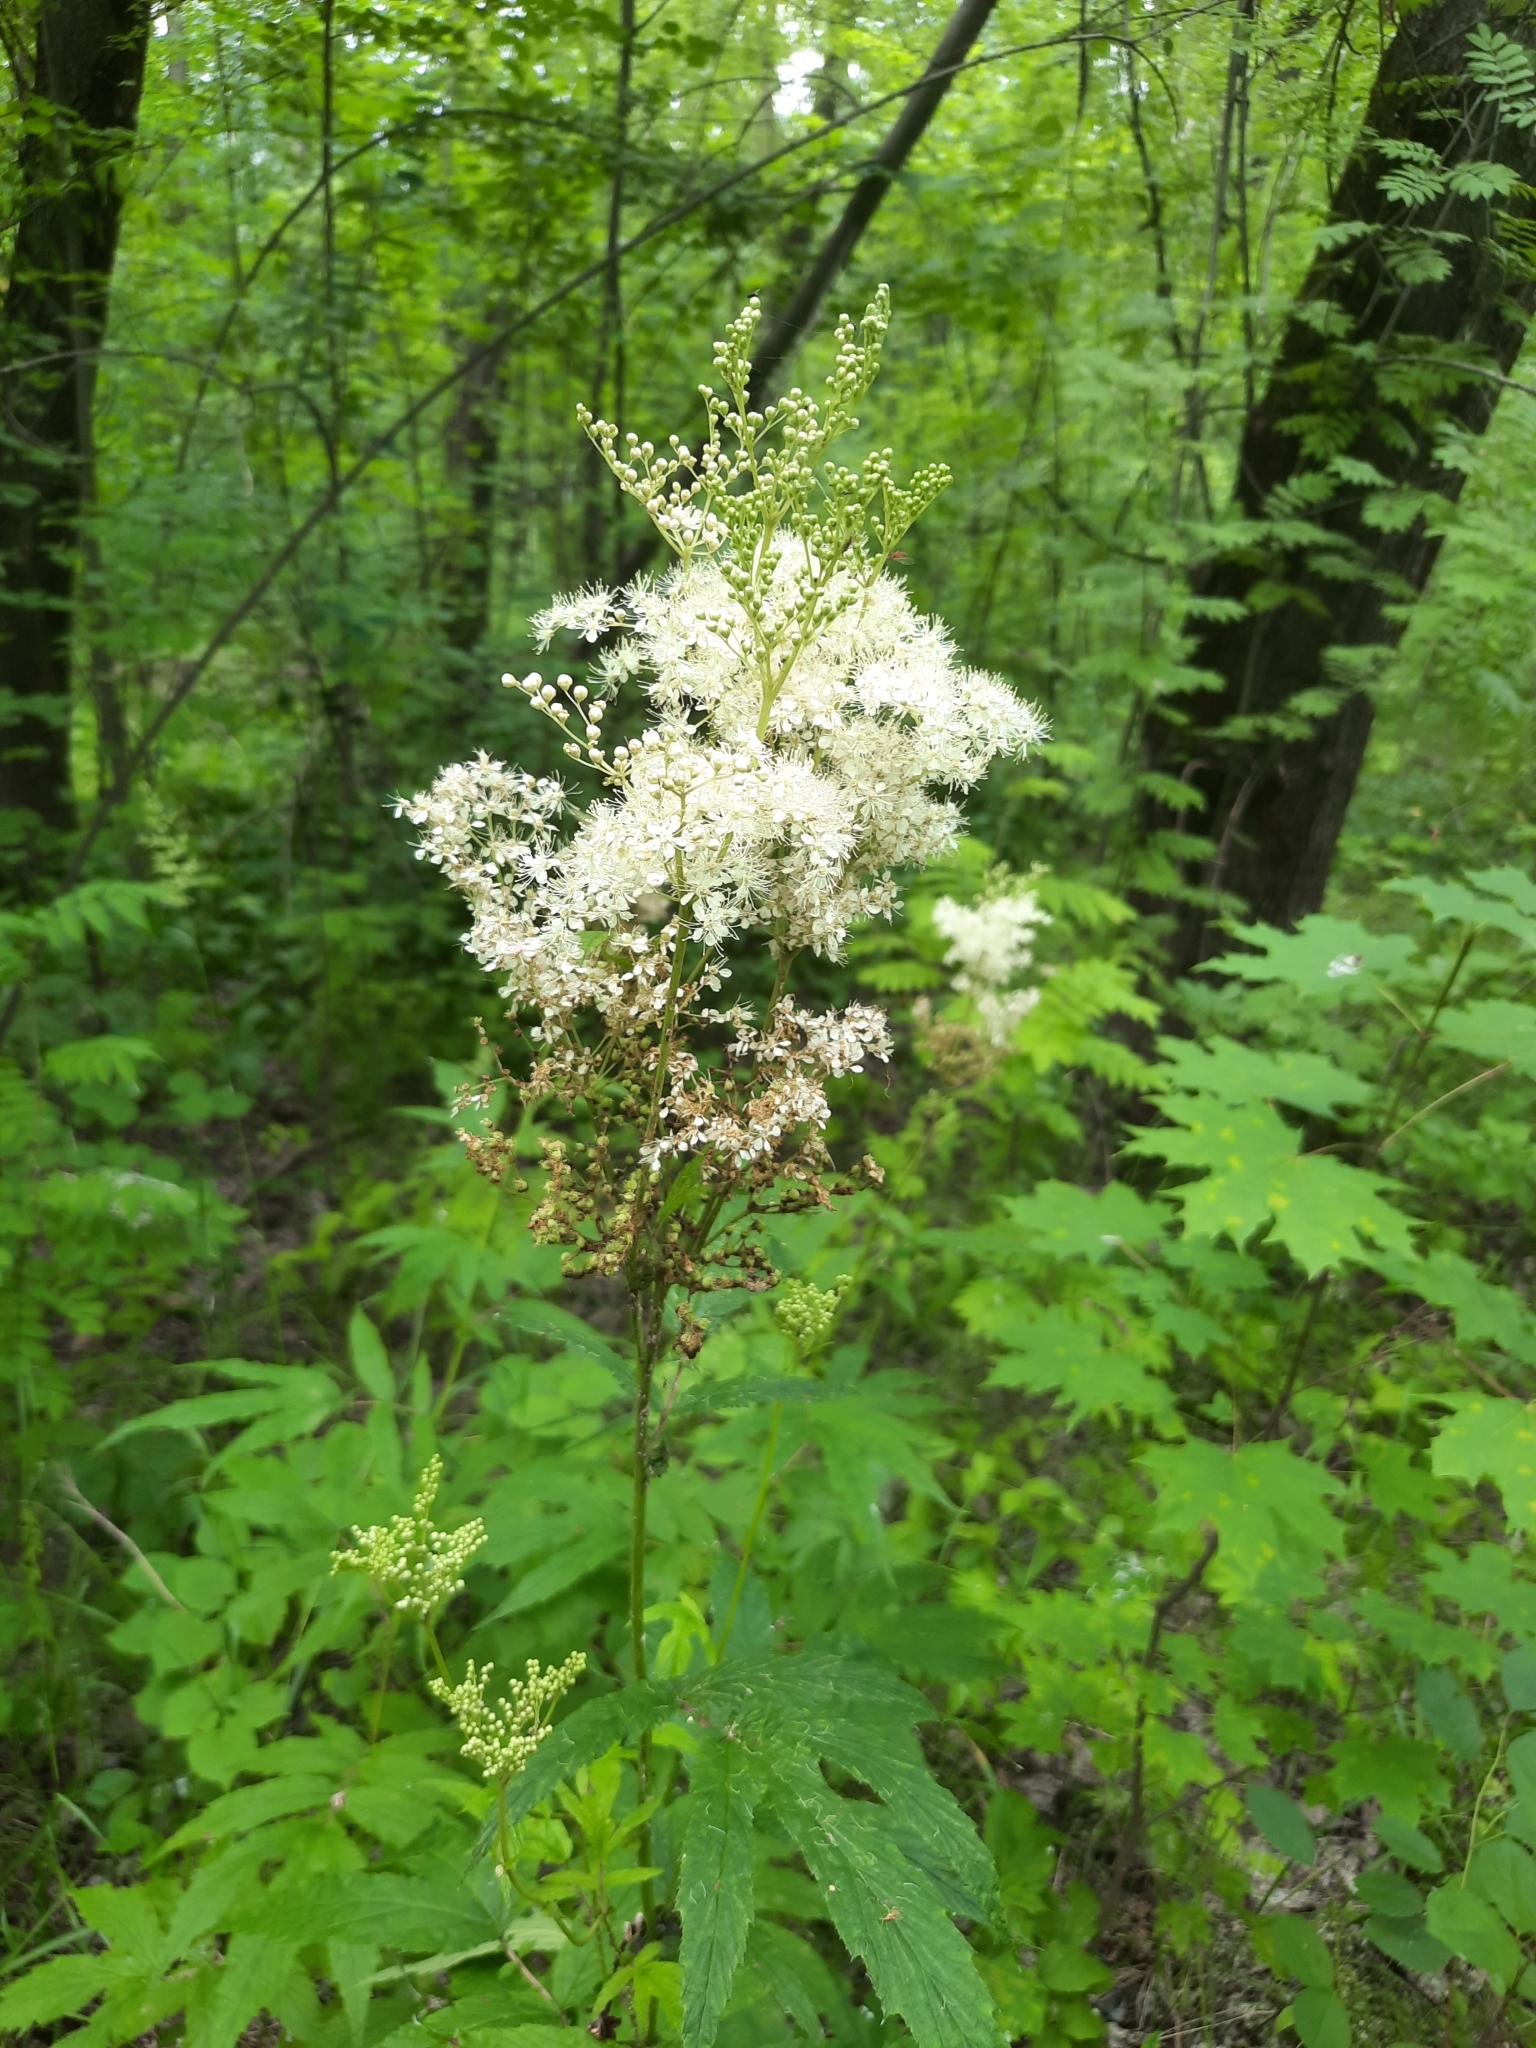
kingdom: Plantae
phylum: Tracheophyta
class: Magnoliopsida
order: Rosales
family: Rosaceae
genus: Filipendula
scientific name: Filipendula ulmaria
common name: Meadowsweet
